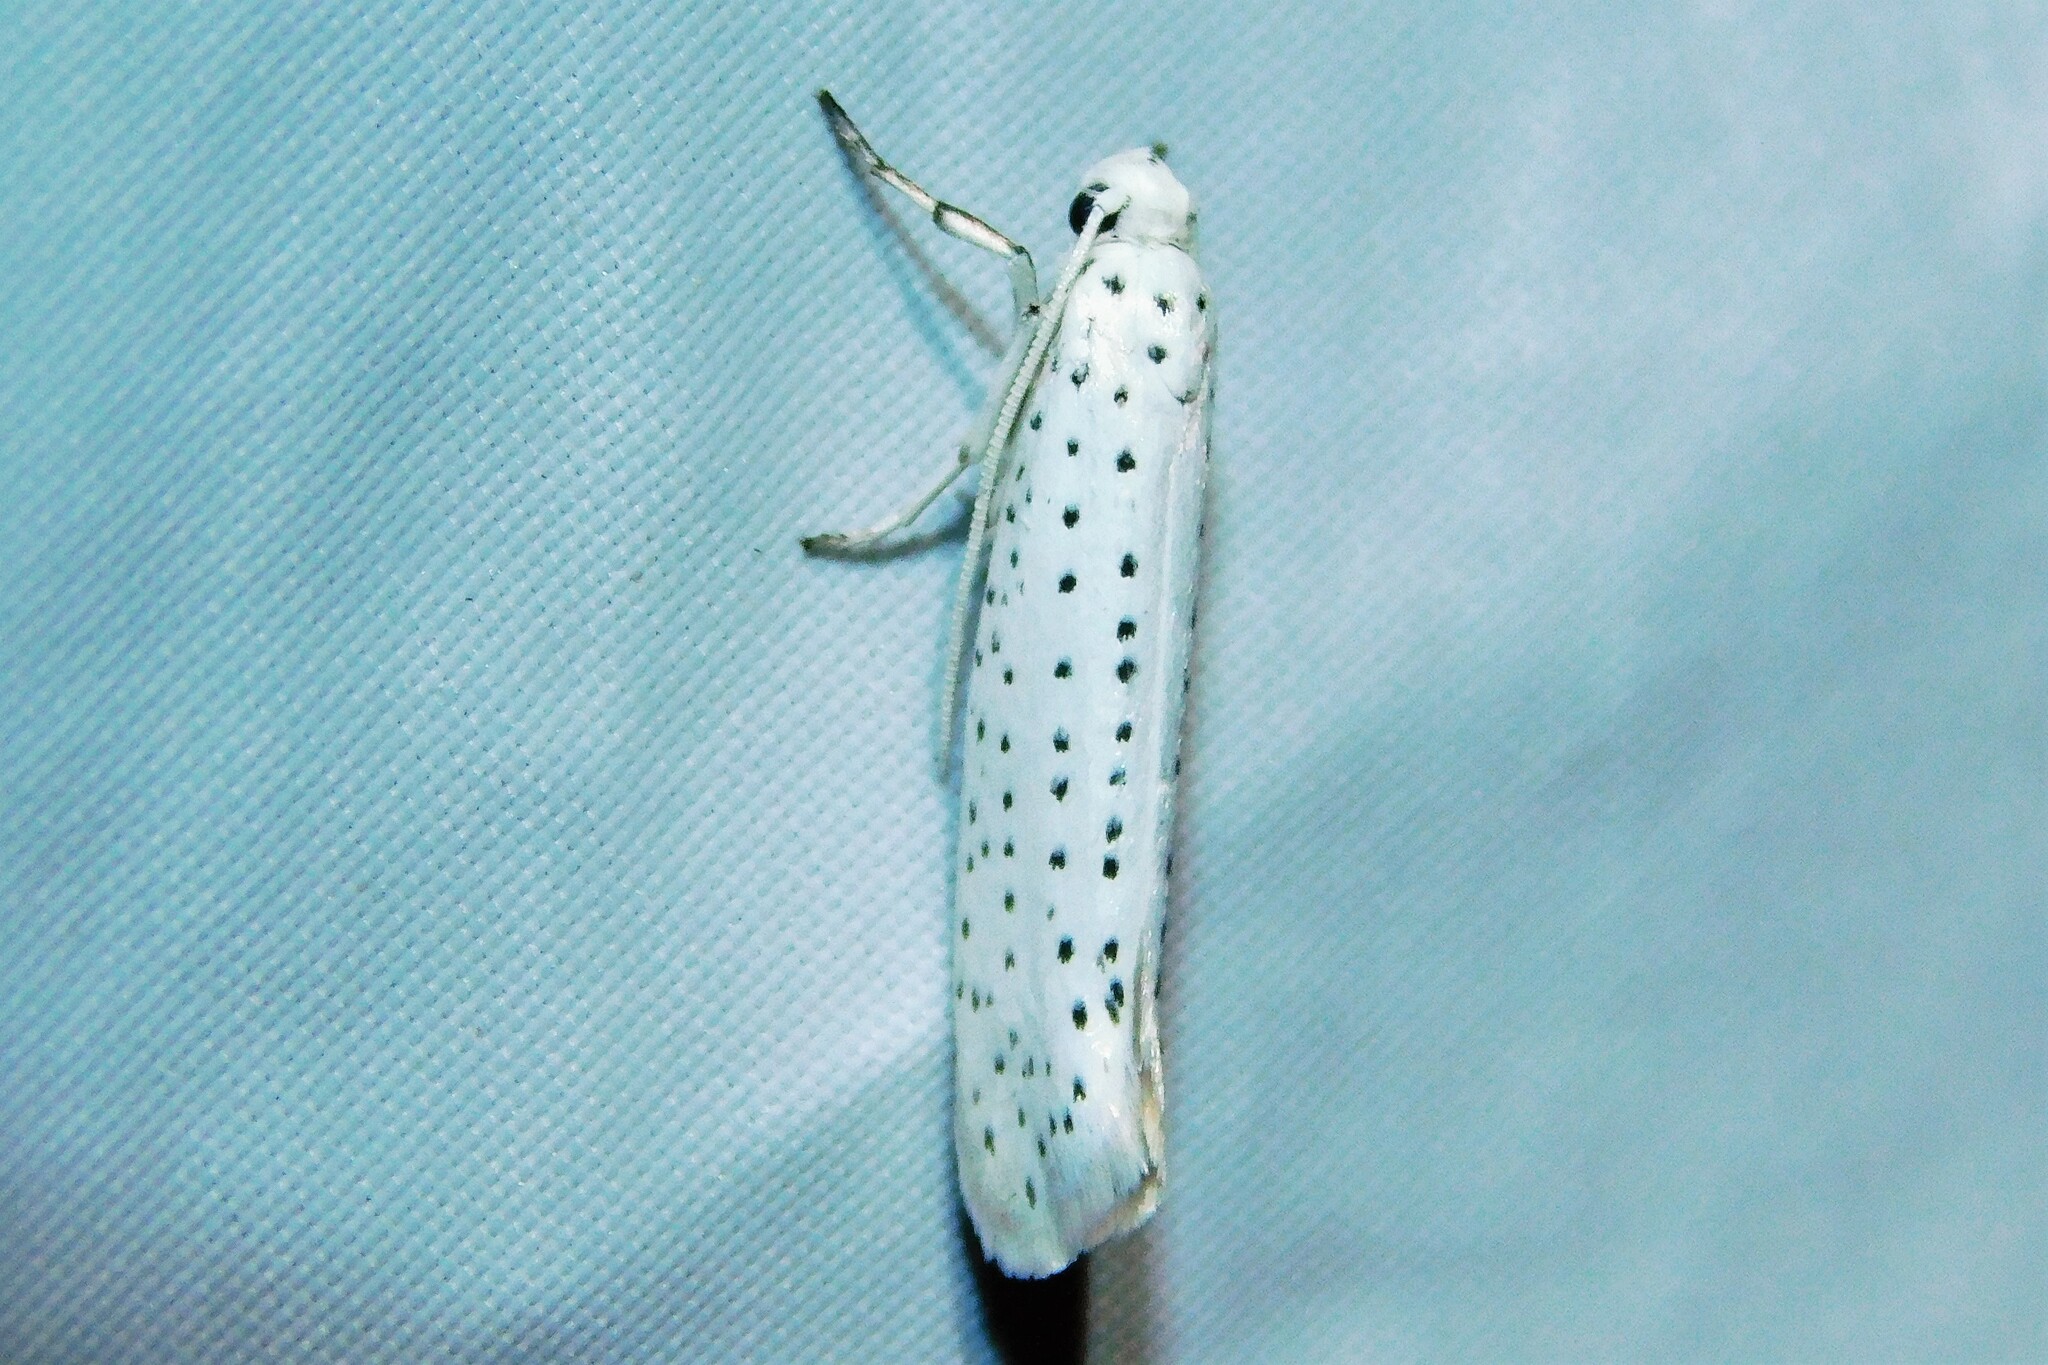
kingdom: Animalia
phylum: Arthropoda
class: Insecta
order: Lepidoptera
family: Yponomeutidae
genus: Yponomeuta
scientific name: Yponomeuta evonymella
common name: Bird-cherry ermine
